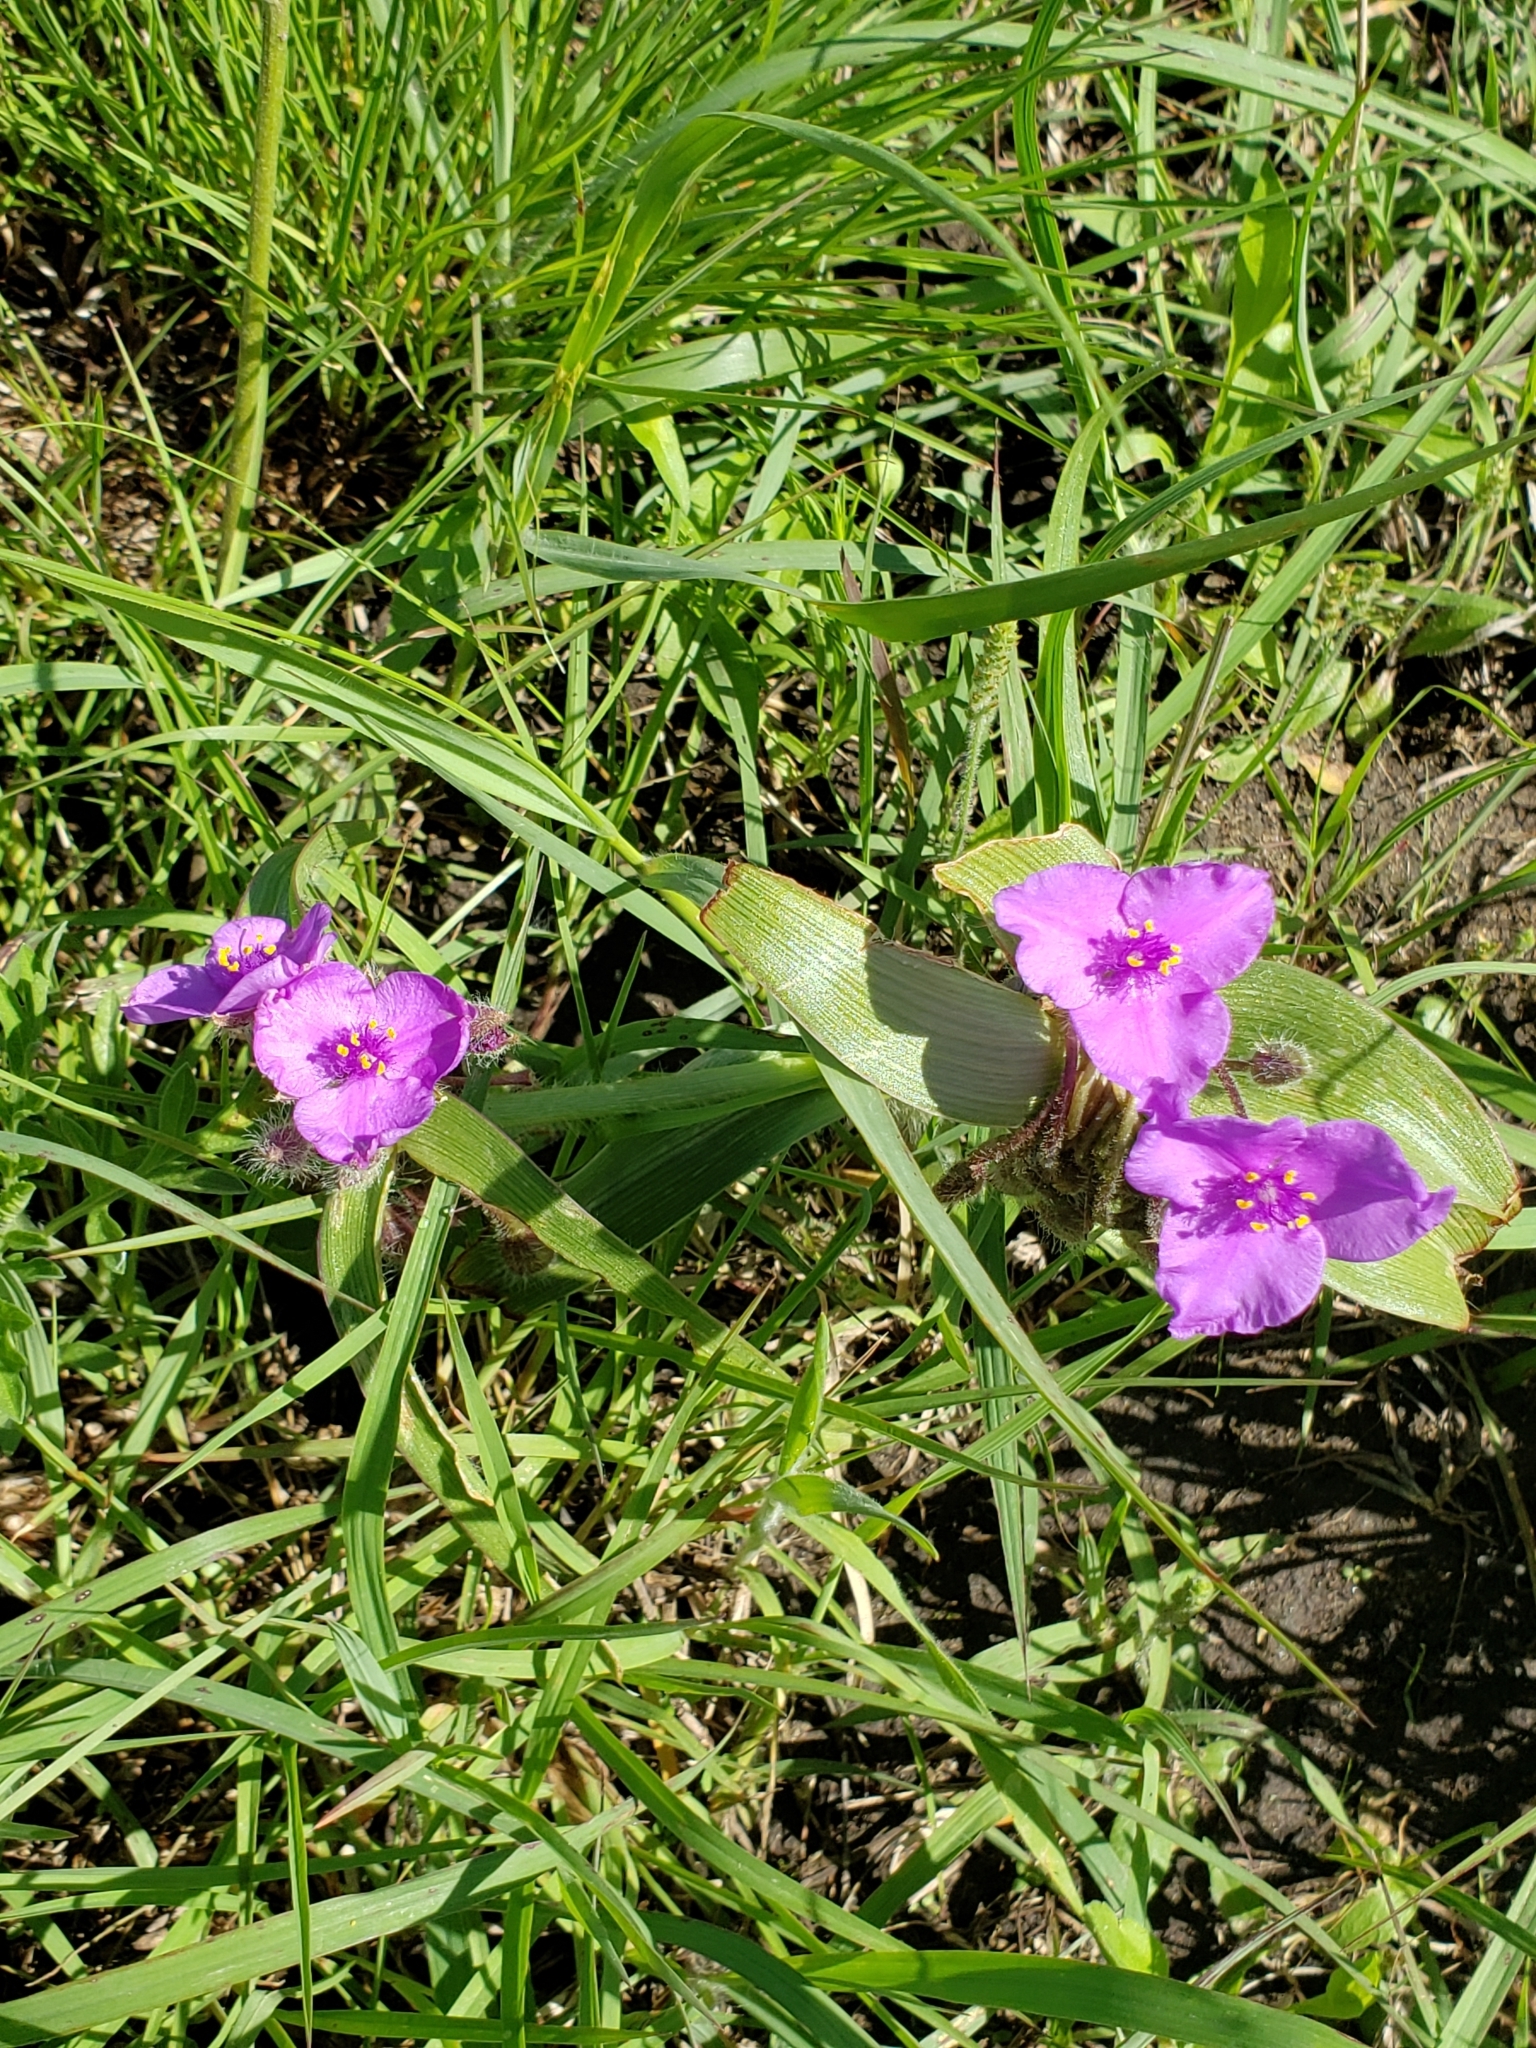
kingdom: Plantae
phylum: Tracheophyta
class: Liliopsida
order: Commelinales
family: Commelinaceae
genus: Tradescantia
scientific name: Tradescantia tharpii
